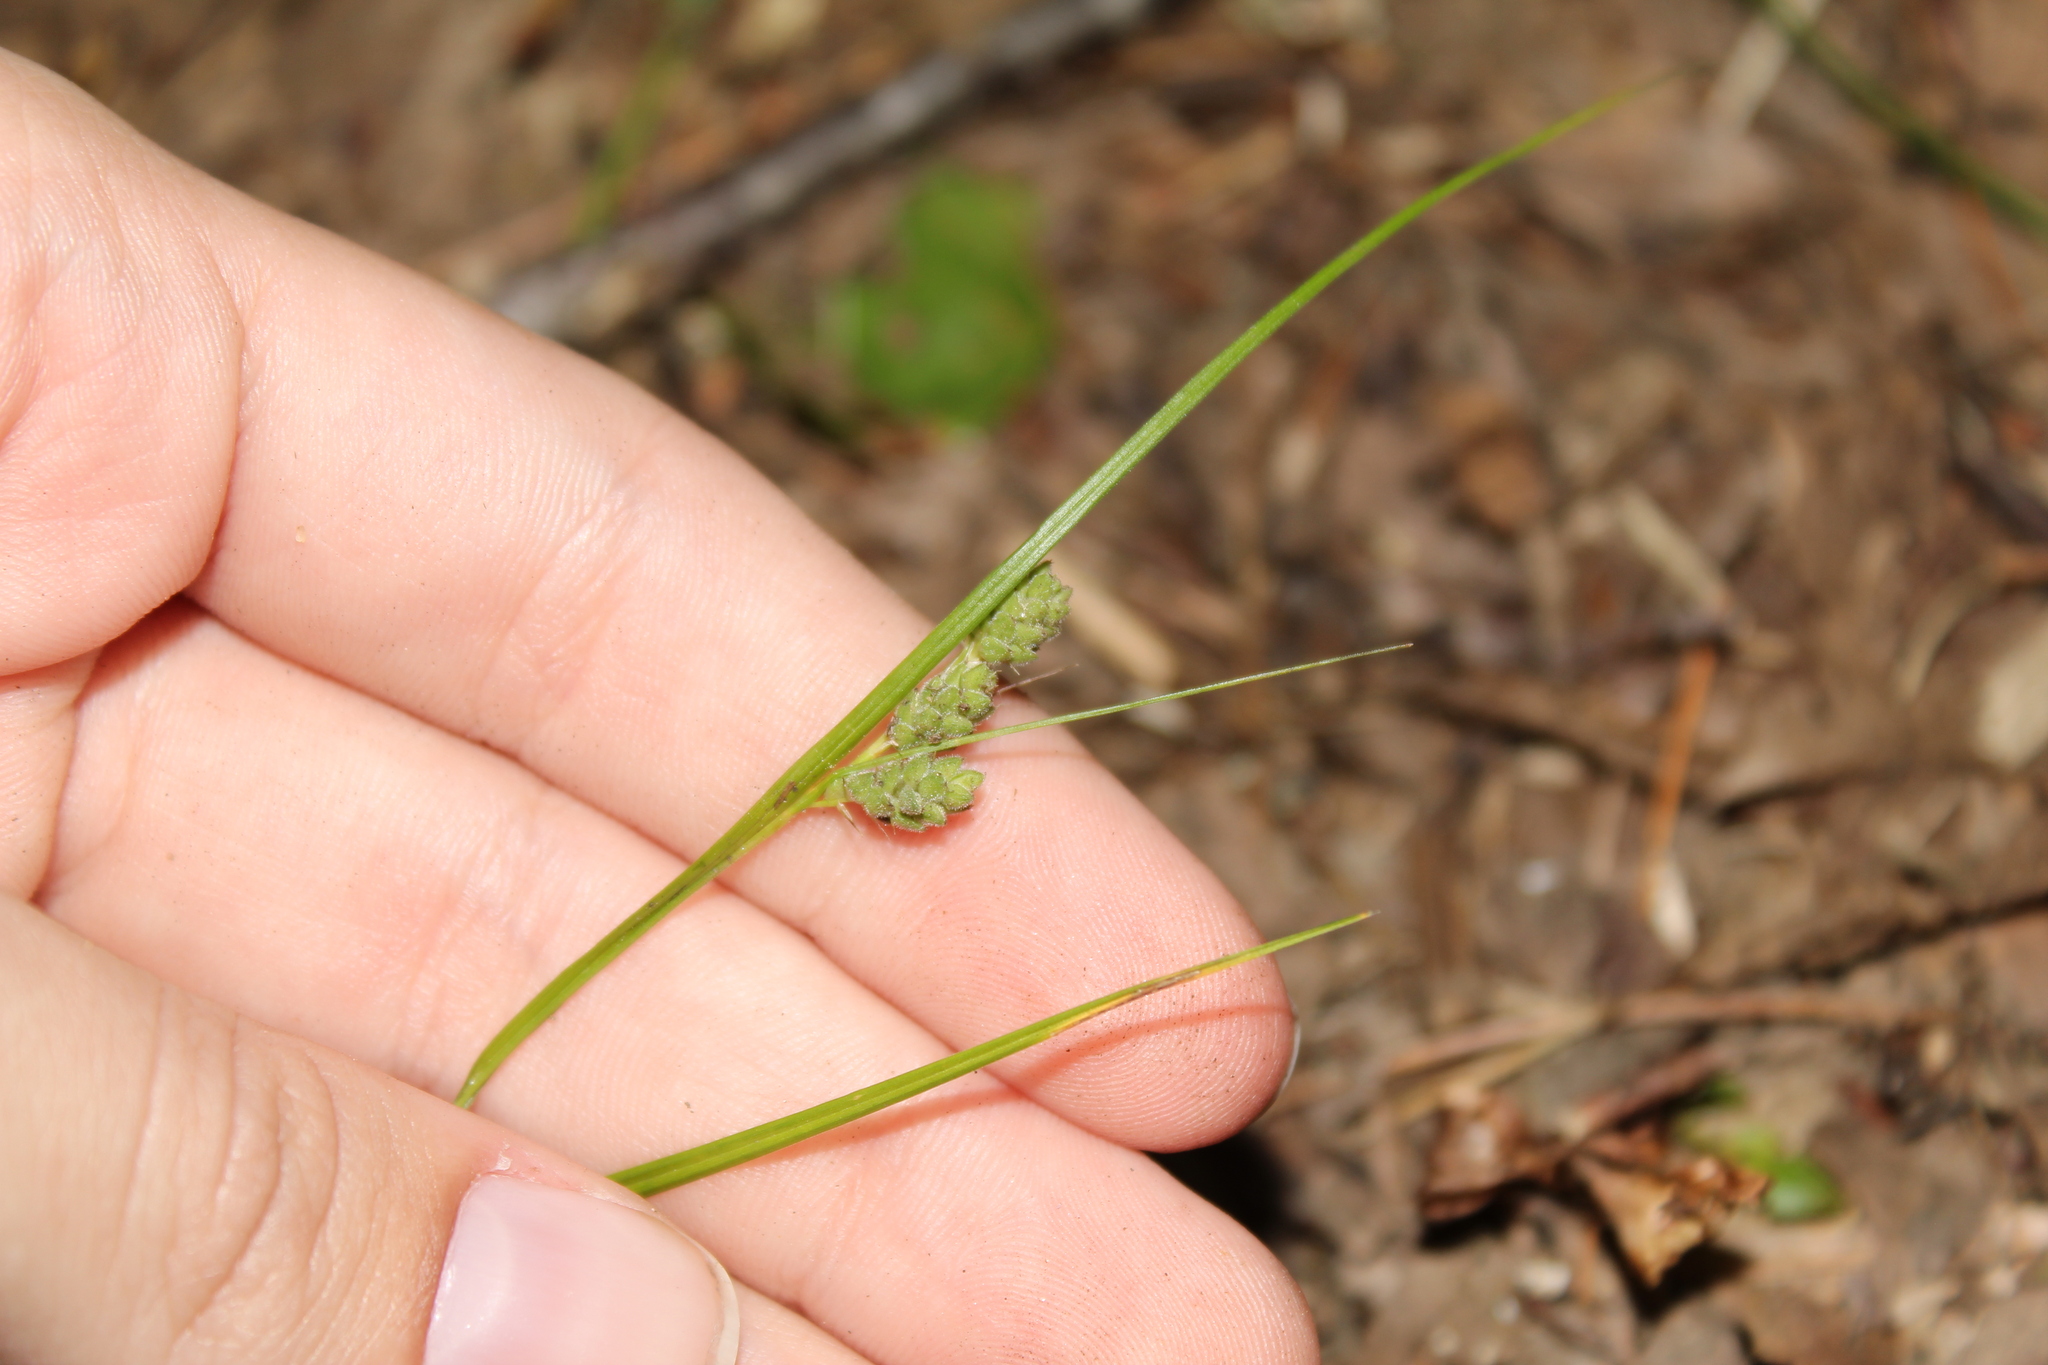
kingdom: Plantae
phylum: Tracheophyta
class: Liliopsida
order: Poales
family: Cyperaceae
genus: Carex
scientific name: Carex swanii
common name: Downy green sedge
